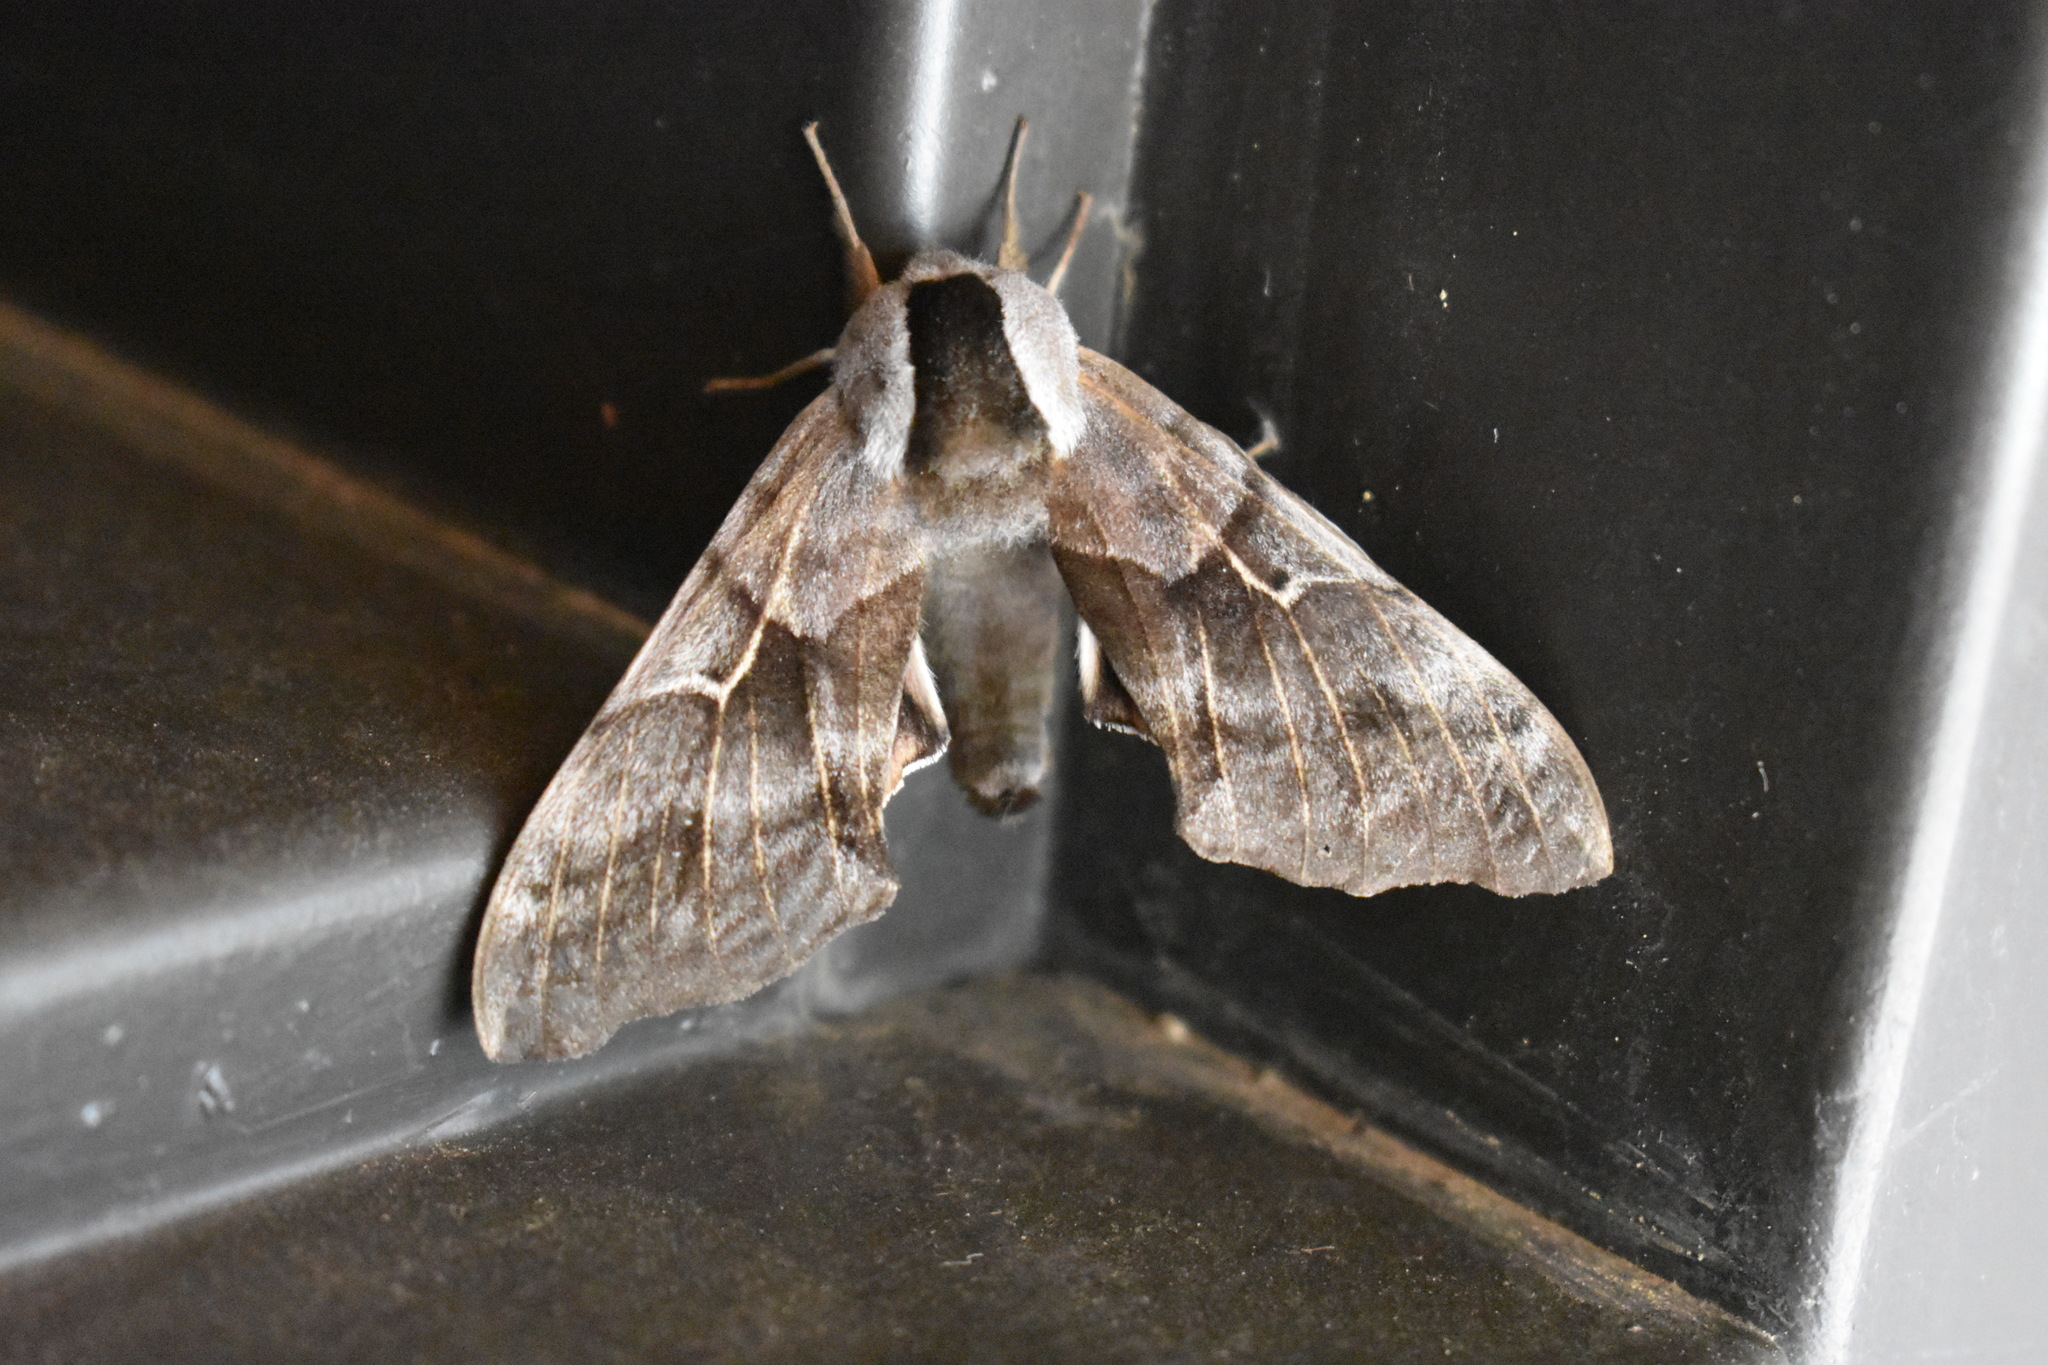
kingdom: Animalia
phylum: Arthropoda
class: Insecta
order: Lepidoptera
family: Sphingidae
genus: Smerinthus
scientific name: Smerinthus cerisyi
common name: Cerisy's sphinx moth
